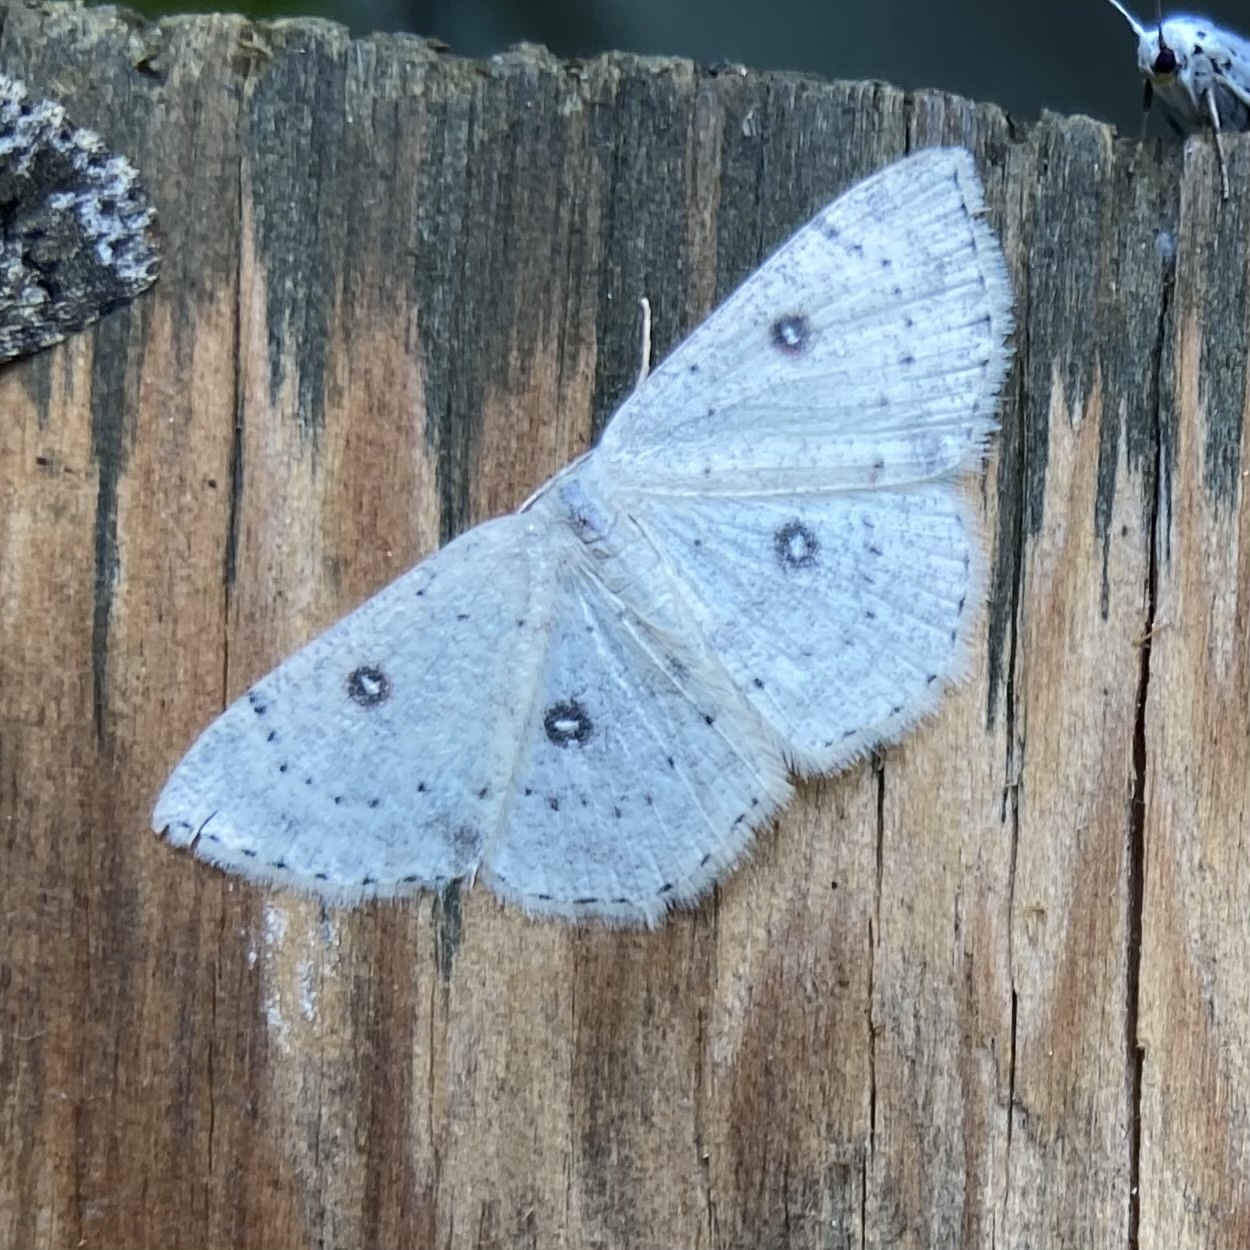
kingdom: Animalia
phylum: Arthropoda
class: Insecta
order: Lepidoptera
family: Geometridae
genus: Cyclophora
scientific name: Cyclophora albipunctata
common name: Birch mocha
